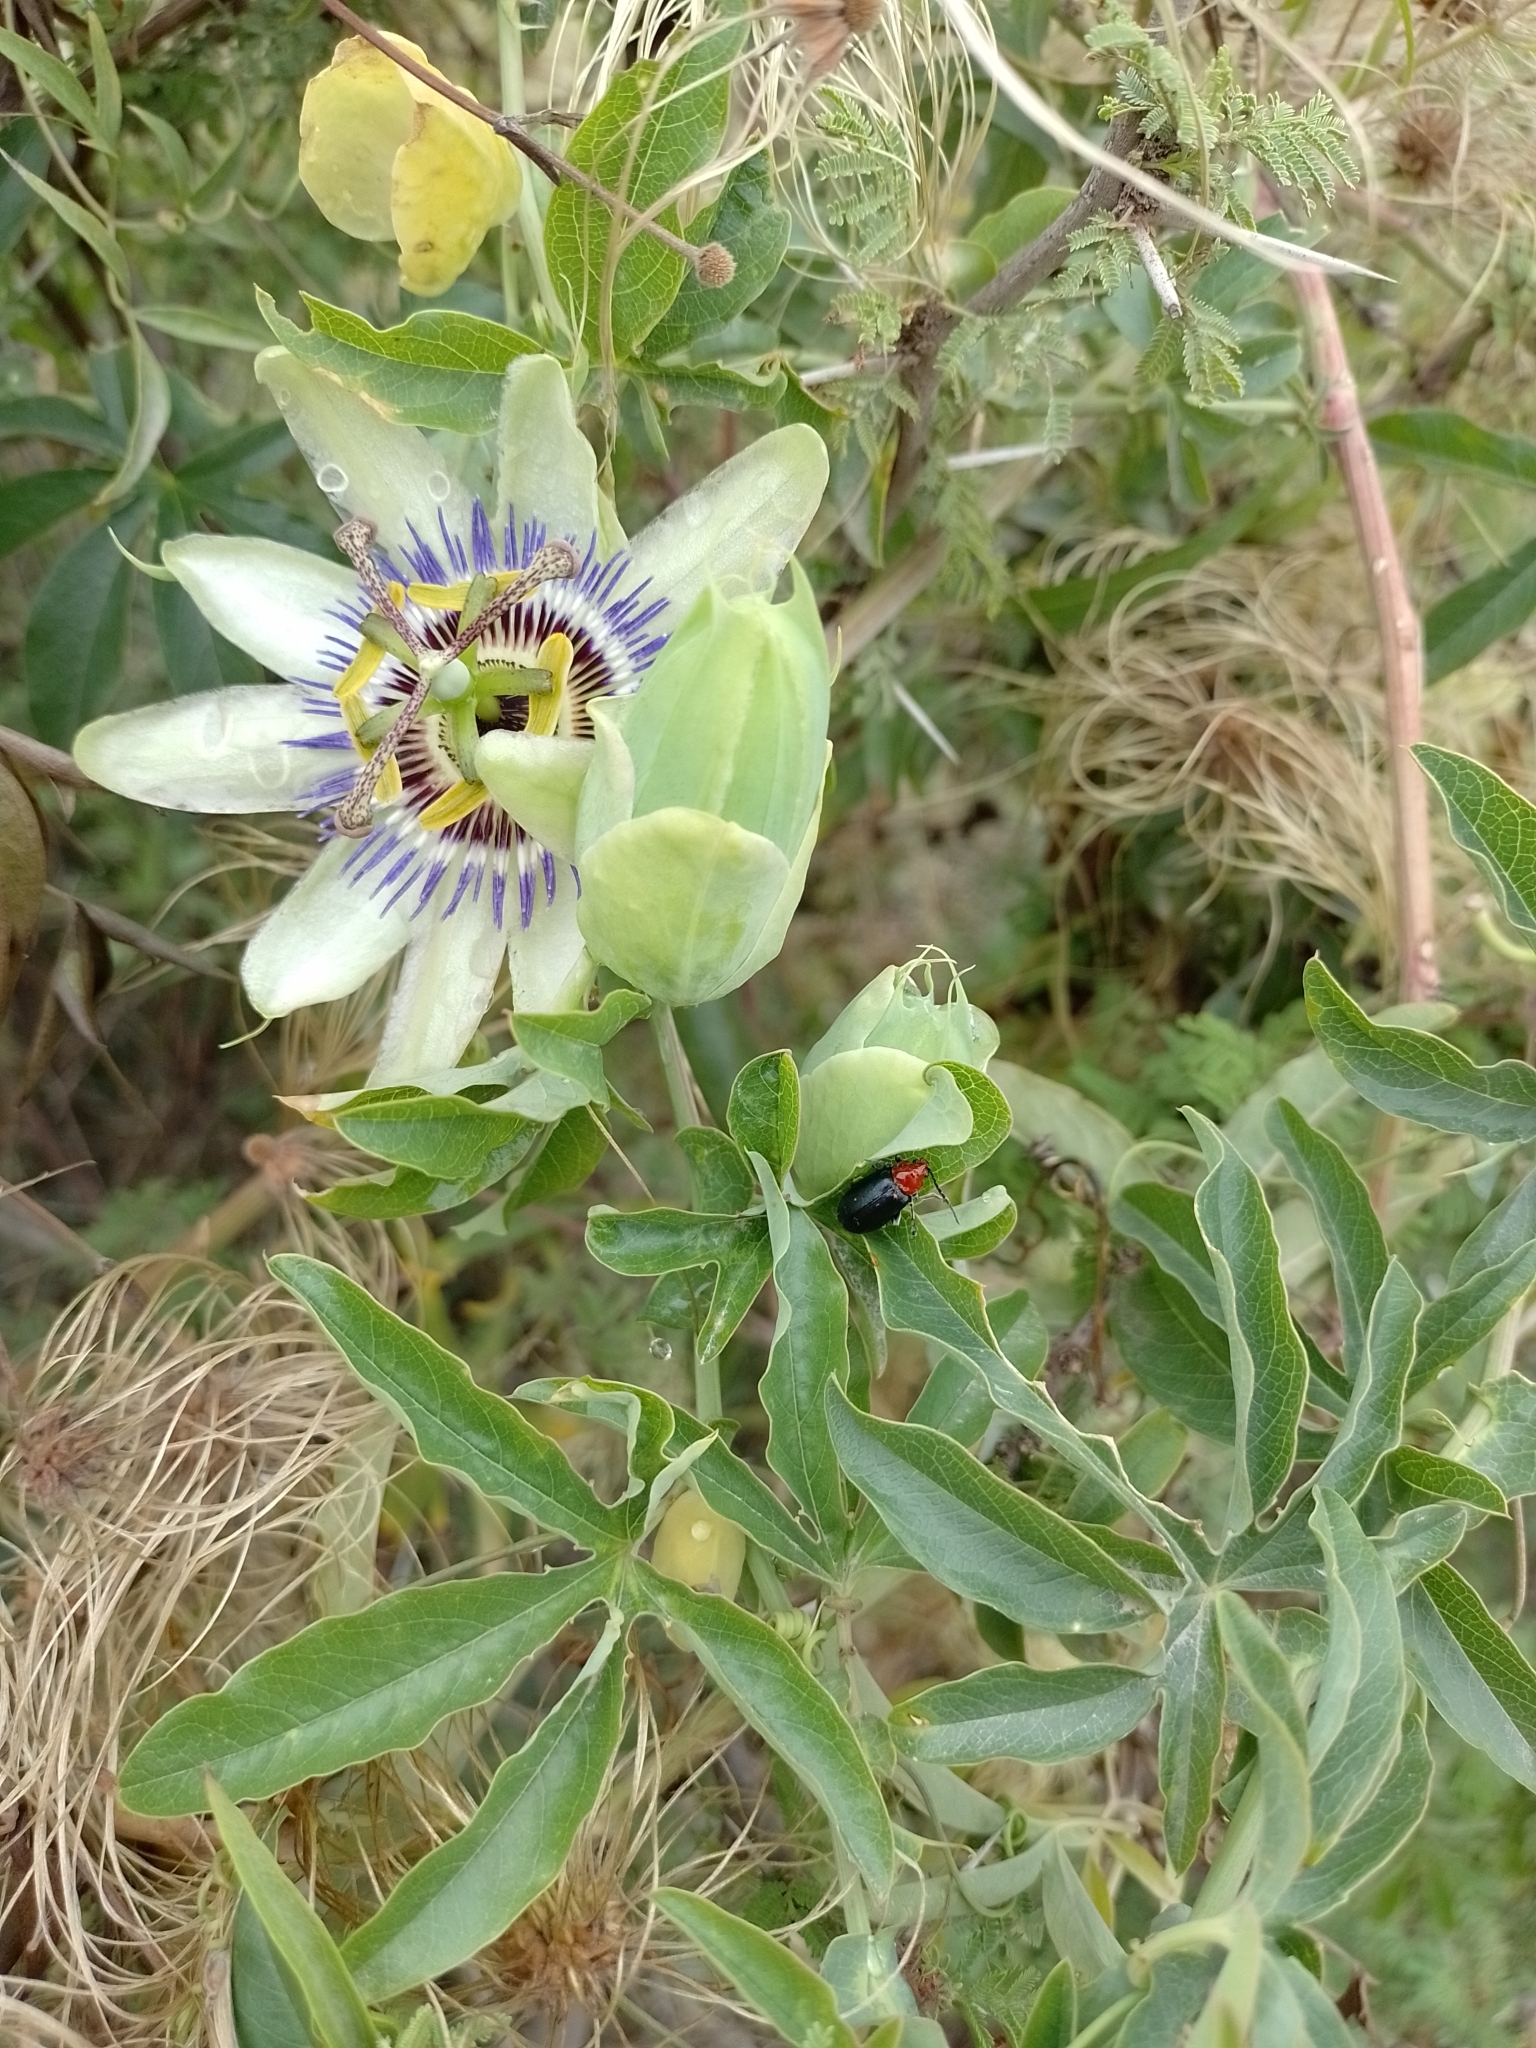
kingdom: Animalia
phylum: Arthropoda
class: Insecta
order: Coleoptera
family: Chrysomelidae
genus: Cacoscelis
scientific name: Cacoscelis
